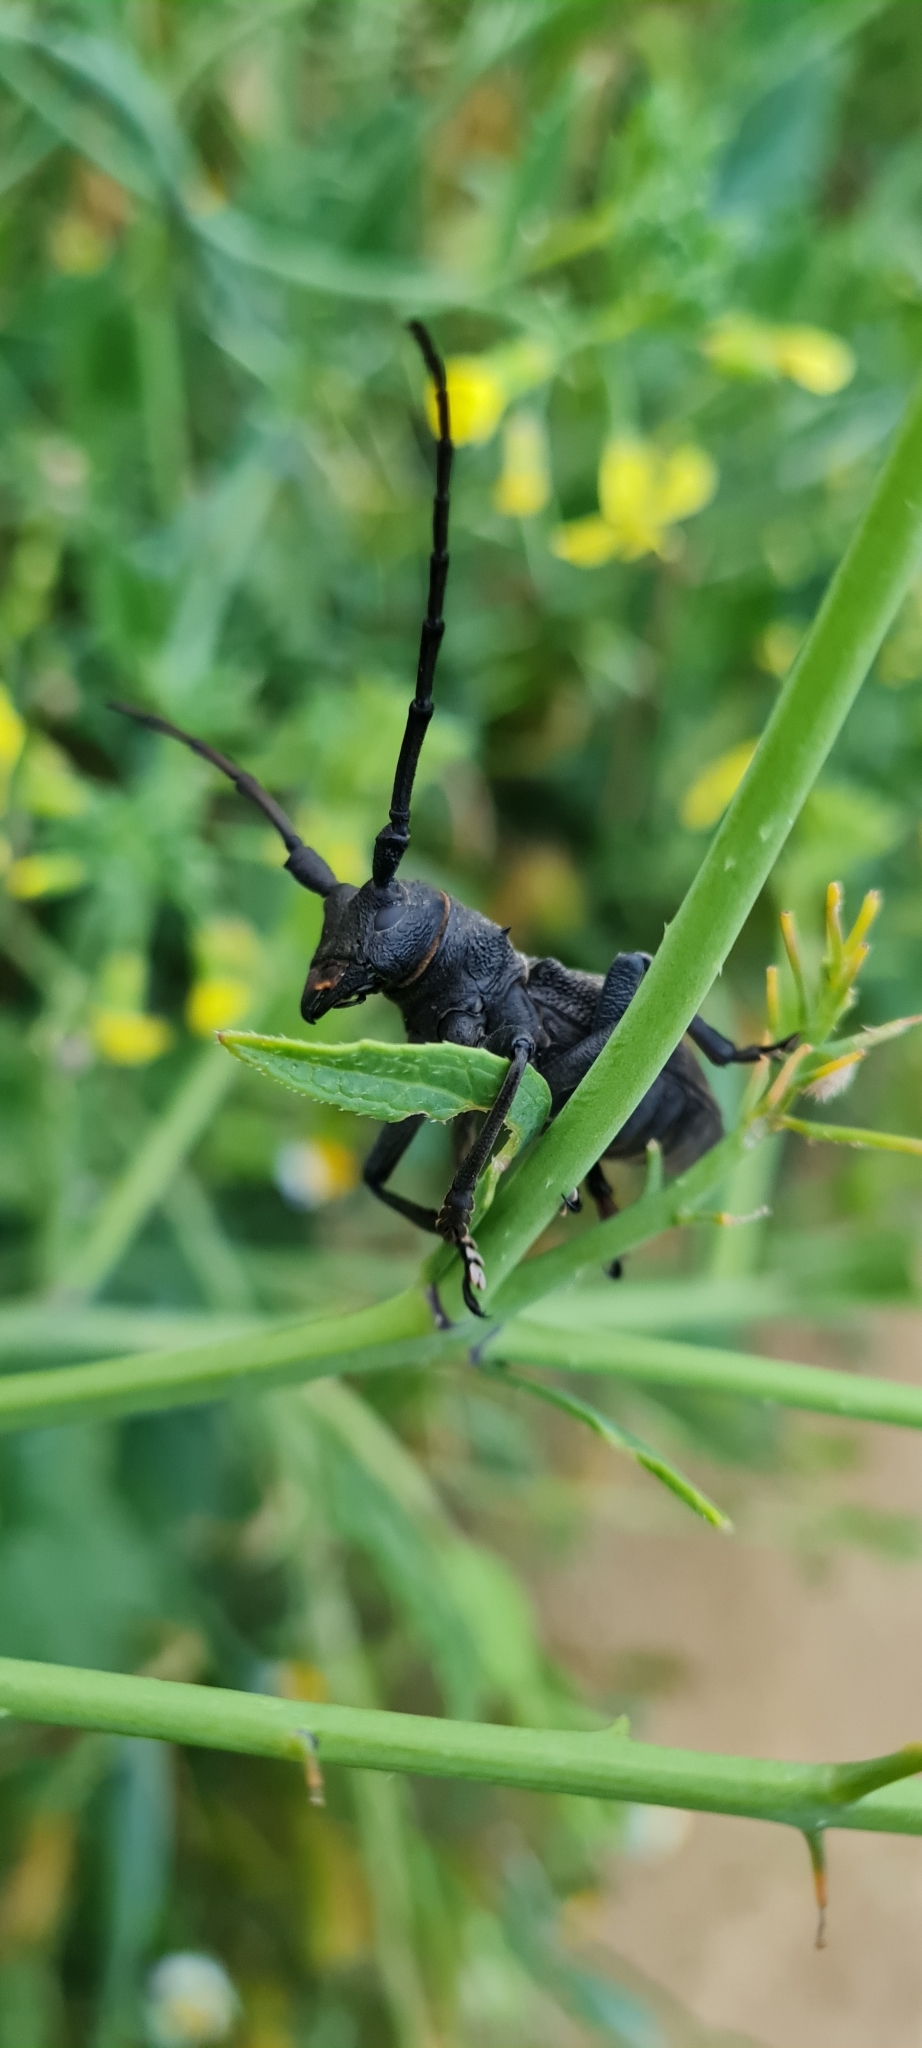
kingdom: Animalia
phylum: Arthropoda
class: Insecta
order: Coleoptera
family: Cerambycidae
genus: Morimus
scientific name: Morimus asper
